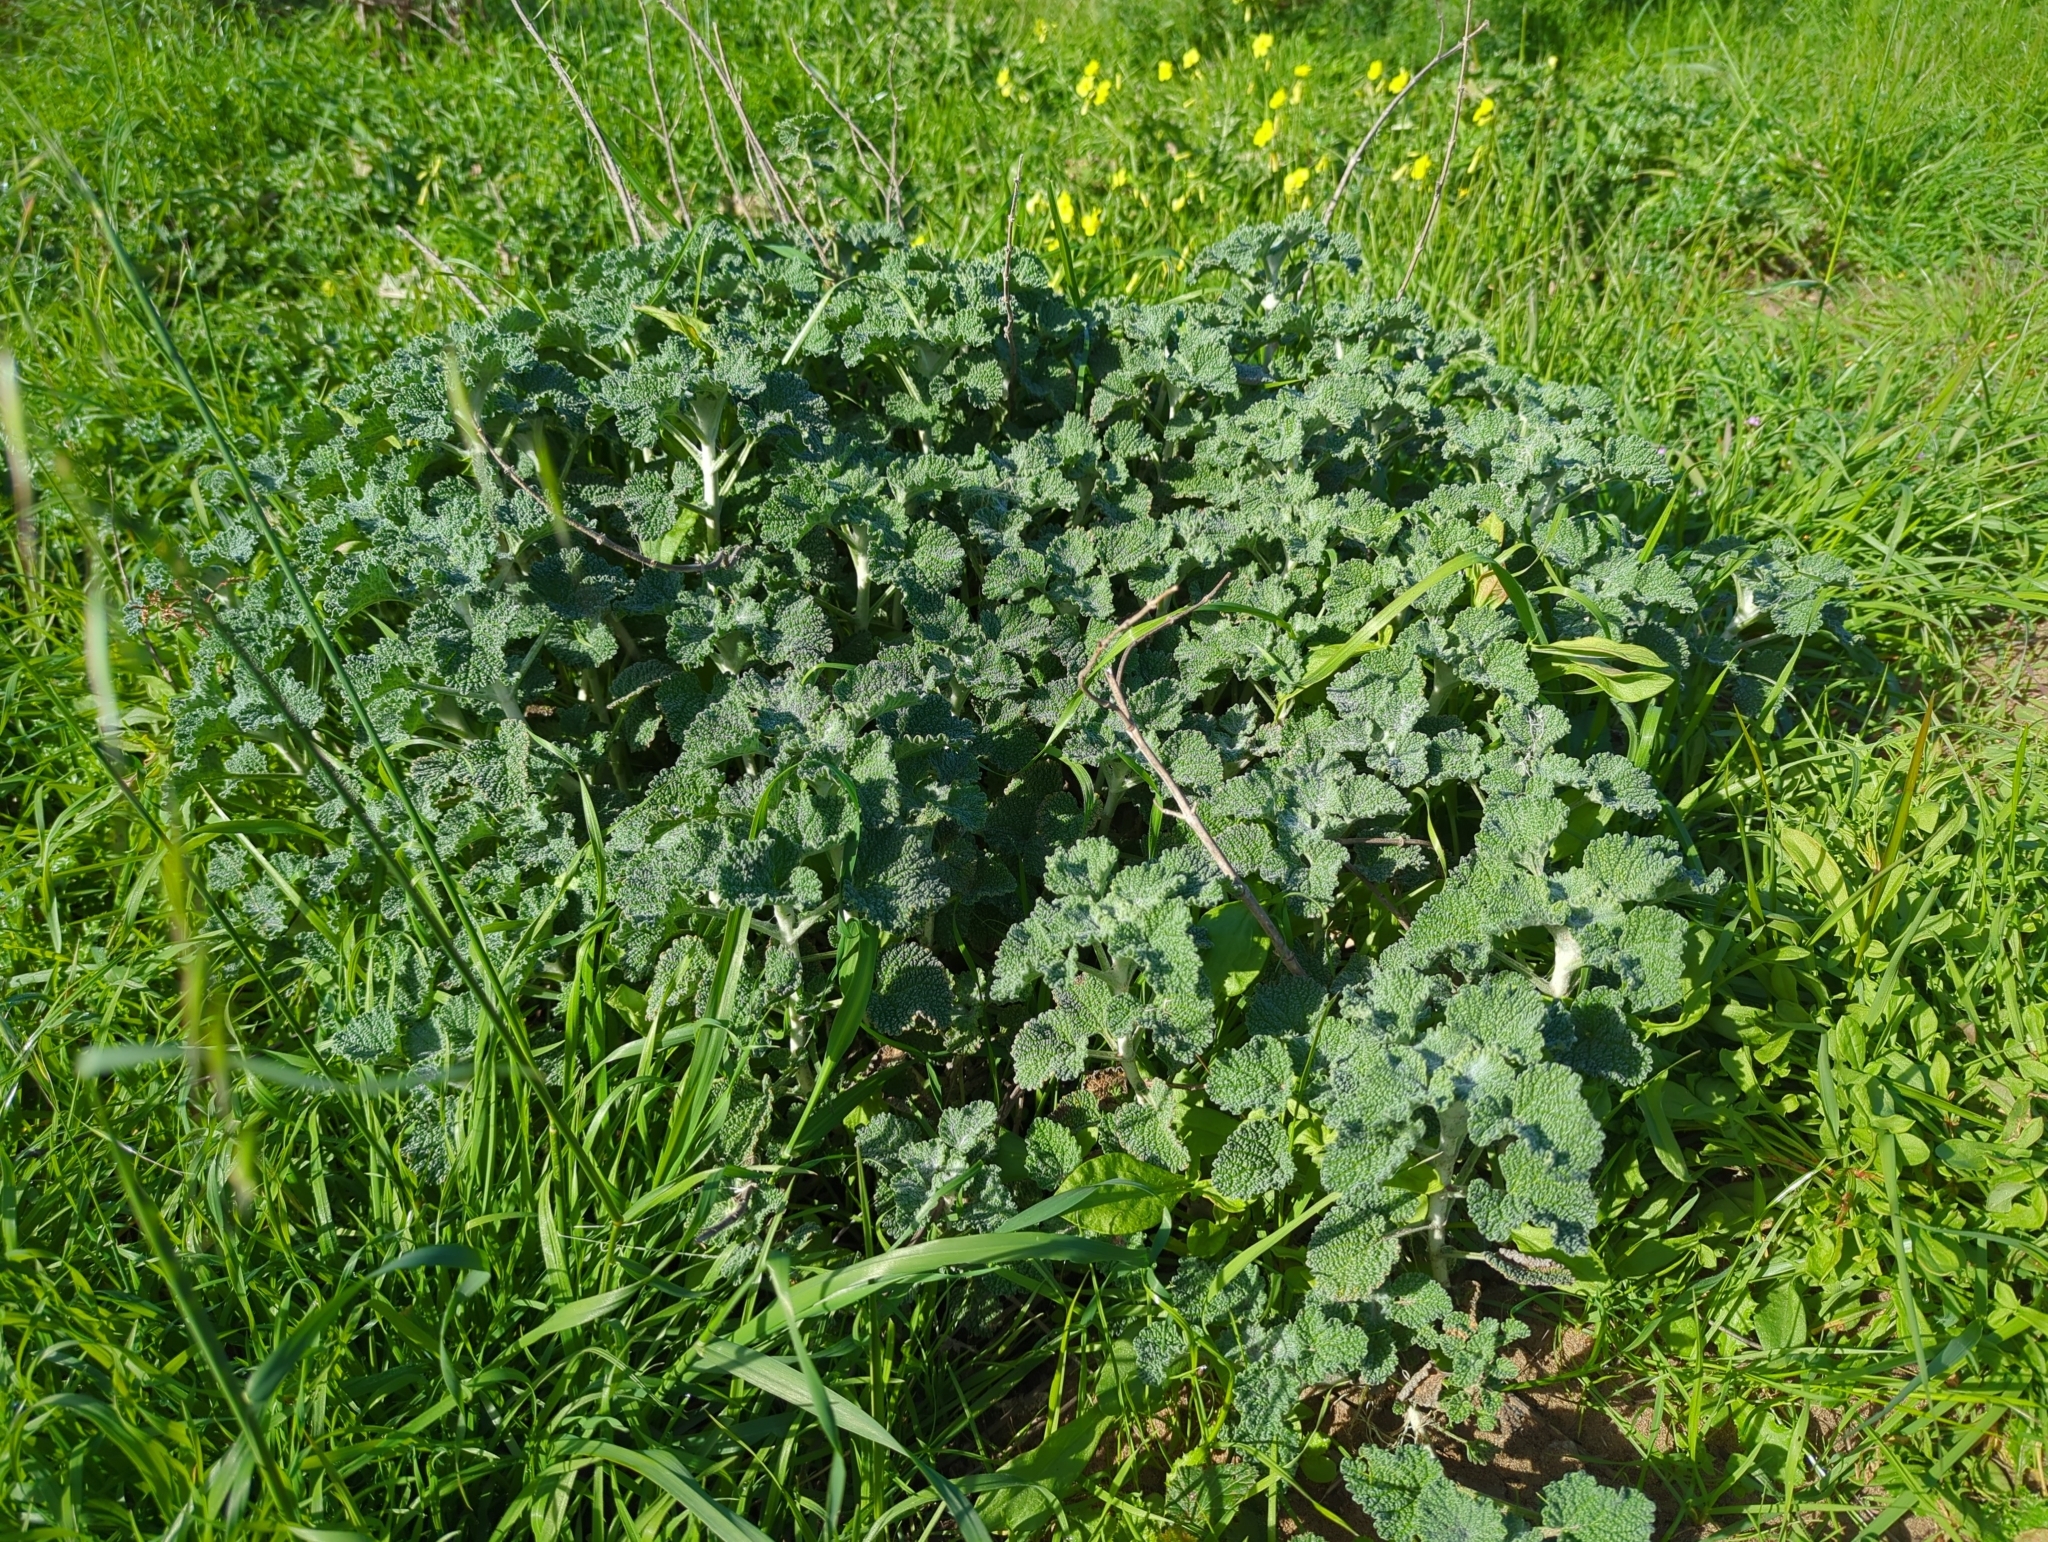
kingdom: Plantae
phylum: Tracheophyta
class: Magnoliopsida
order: Lamiales
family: Lamiaceae
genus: Marrubium
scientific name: Marrubium vulgare
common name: Horehound
